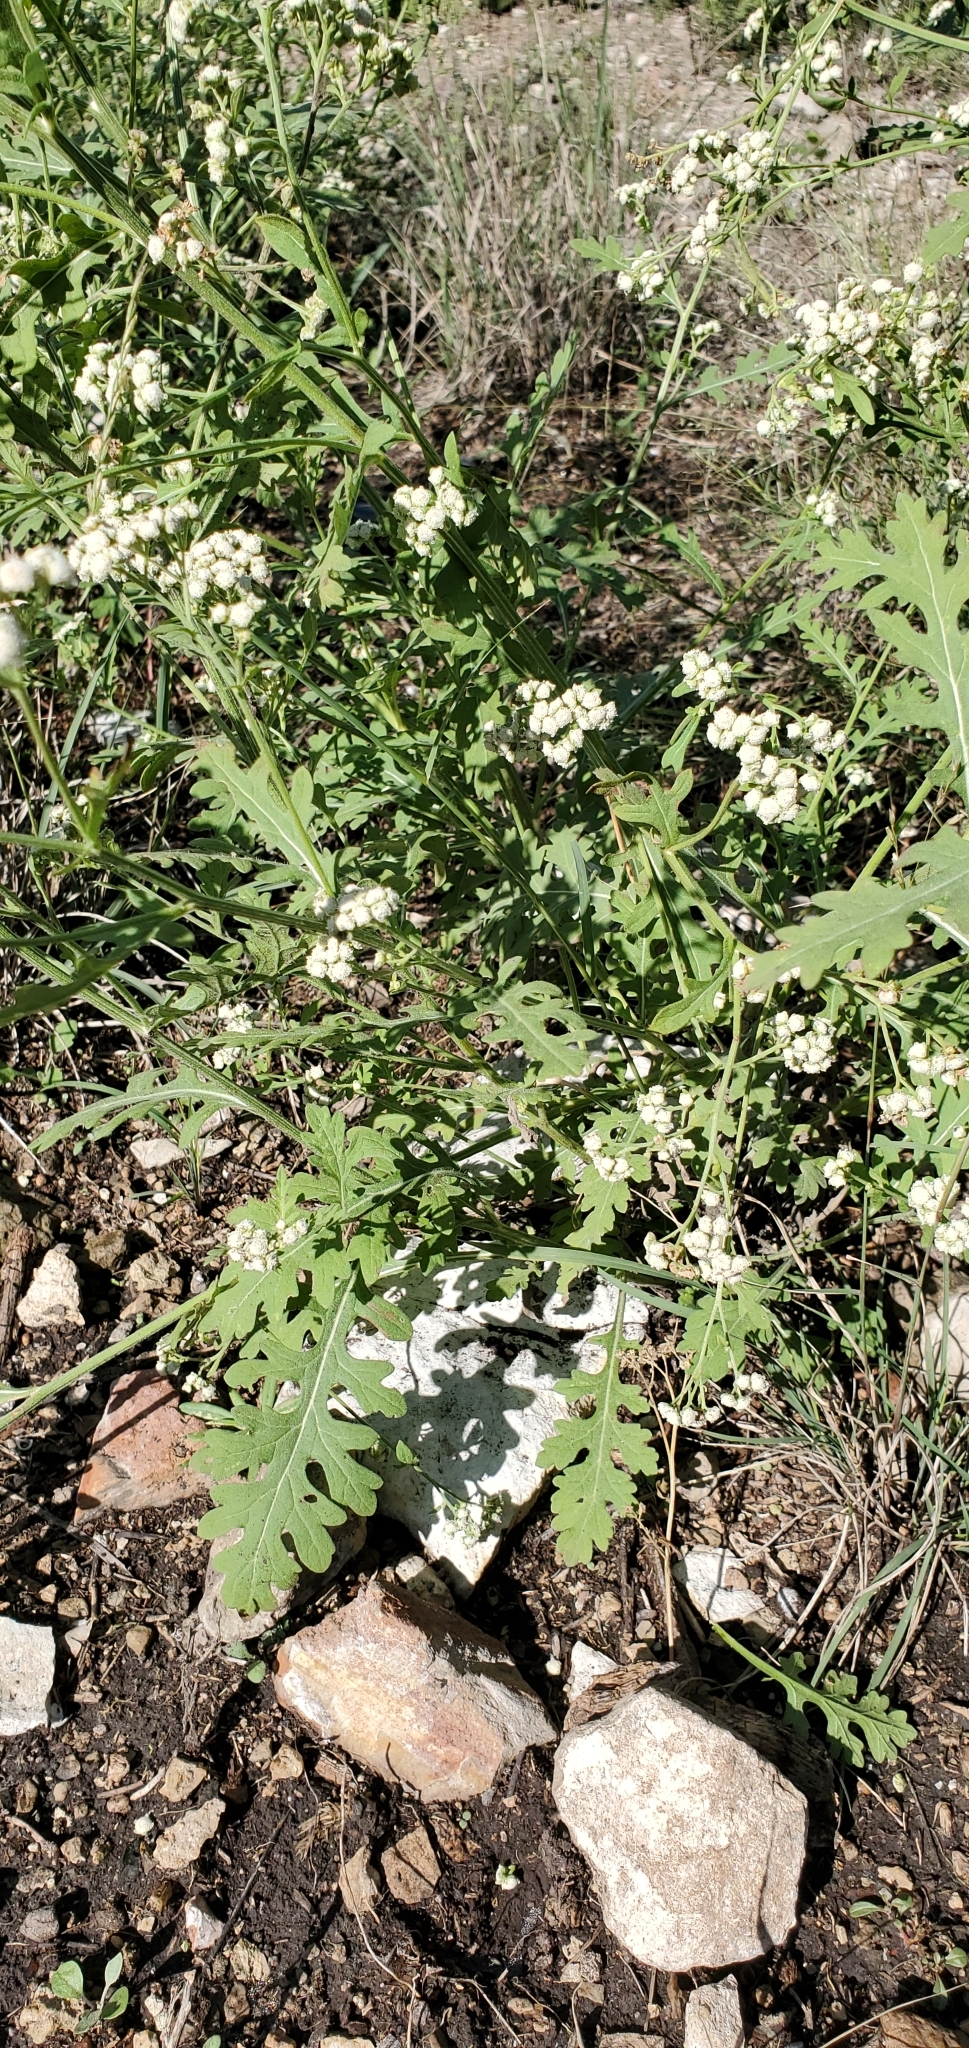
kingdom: Plantae
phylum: Tracheophyta
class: Magnoliopsida
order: Asterales
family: Asteraceae
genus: Parthenium
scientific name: Parthenium confertum
